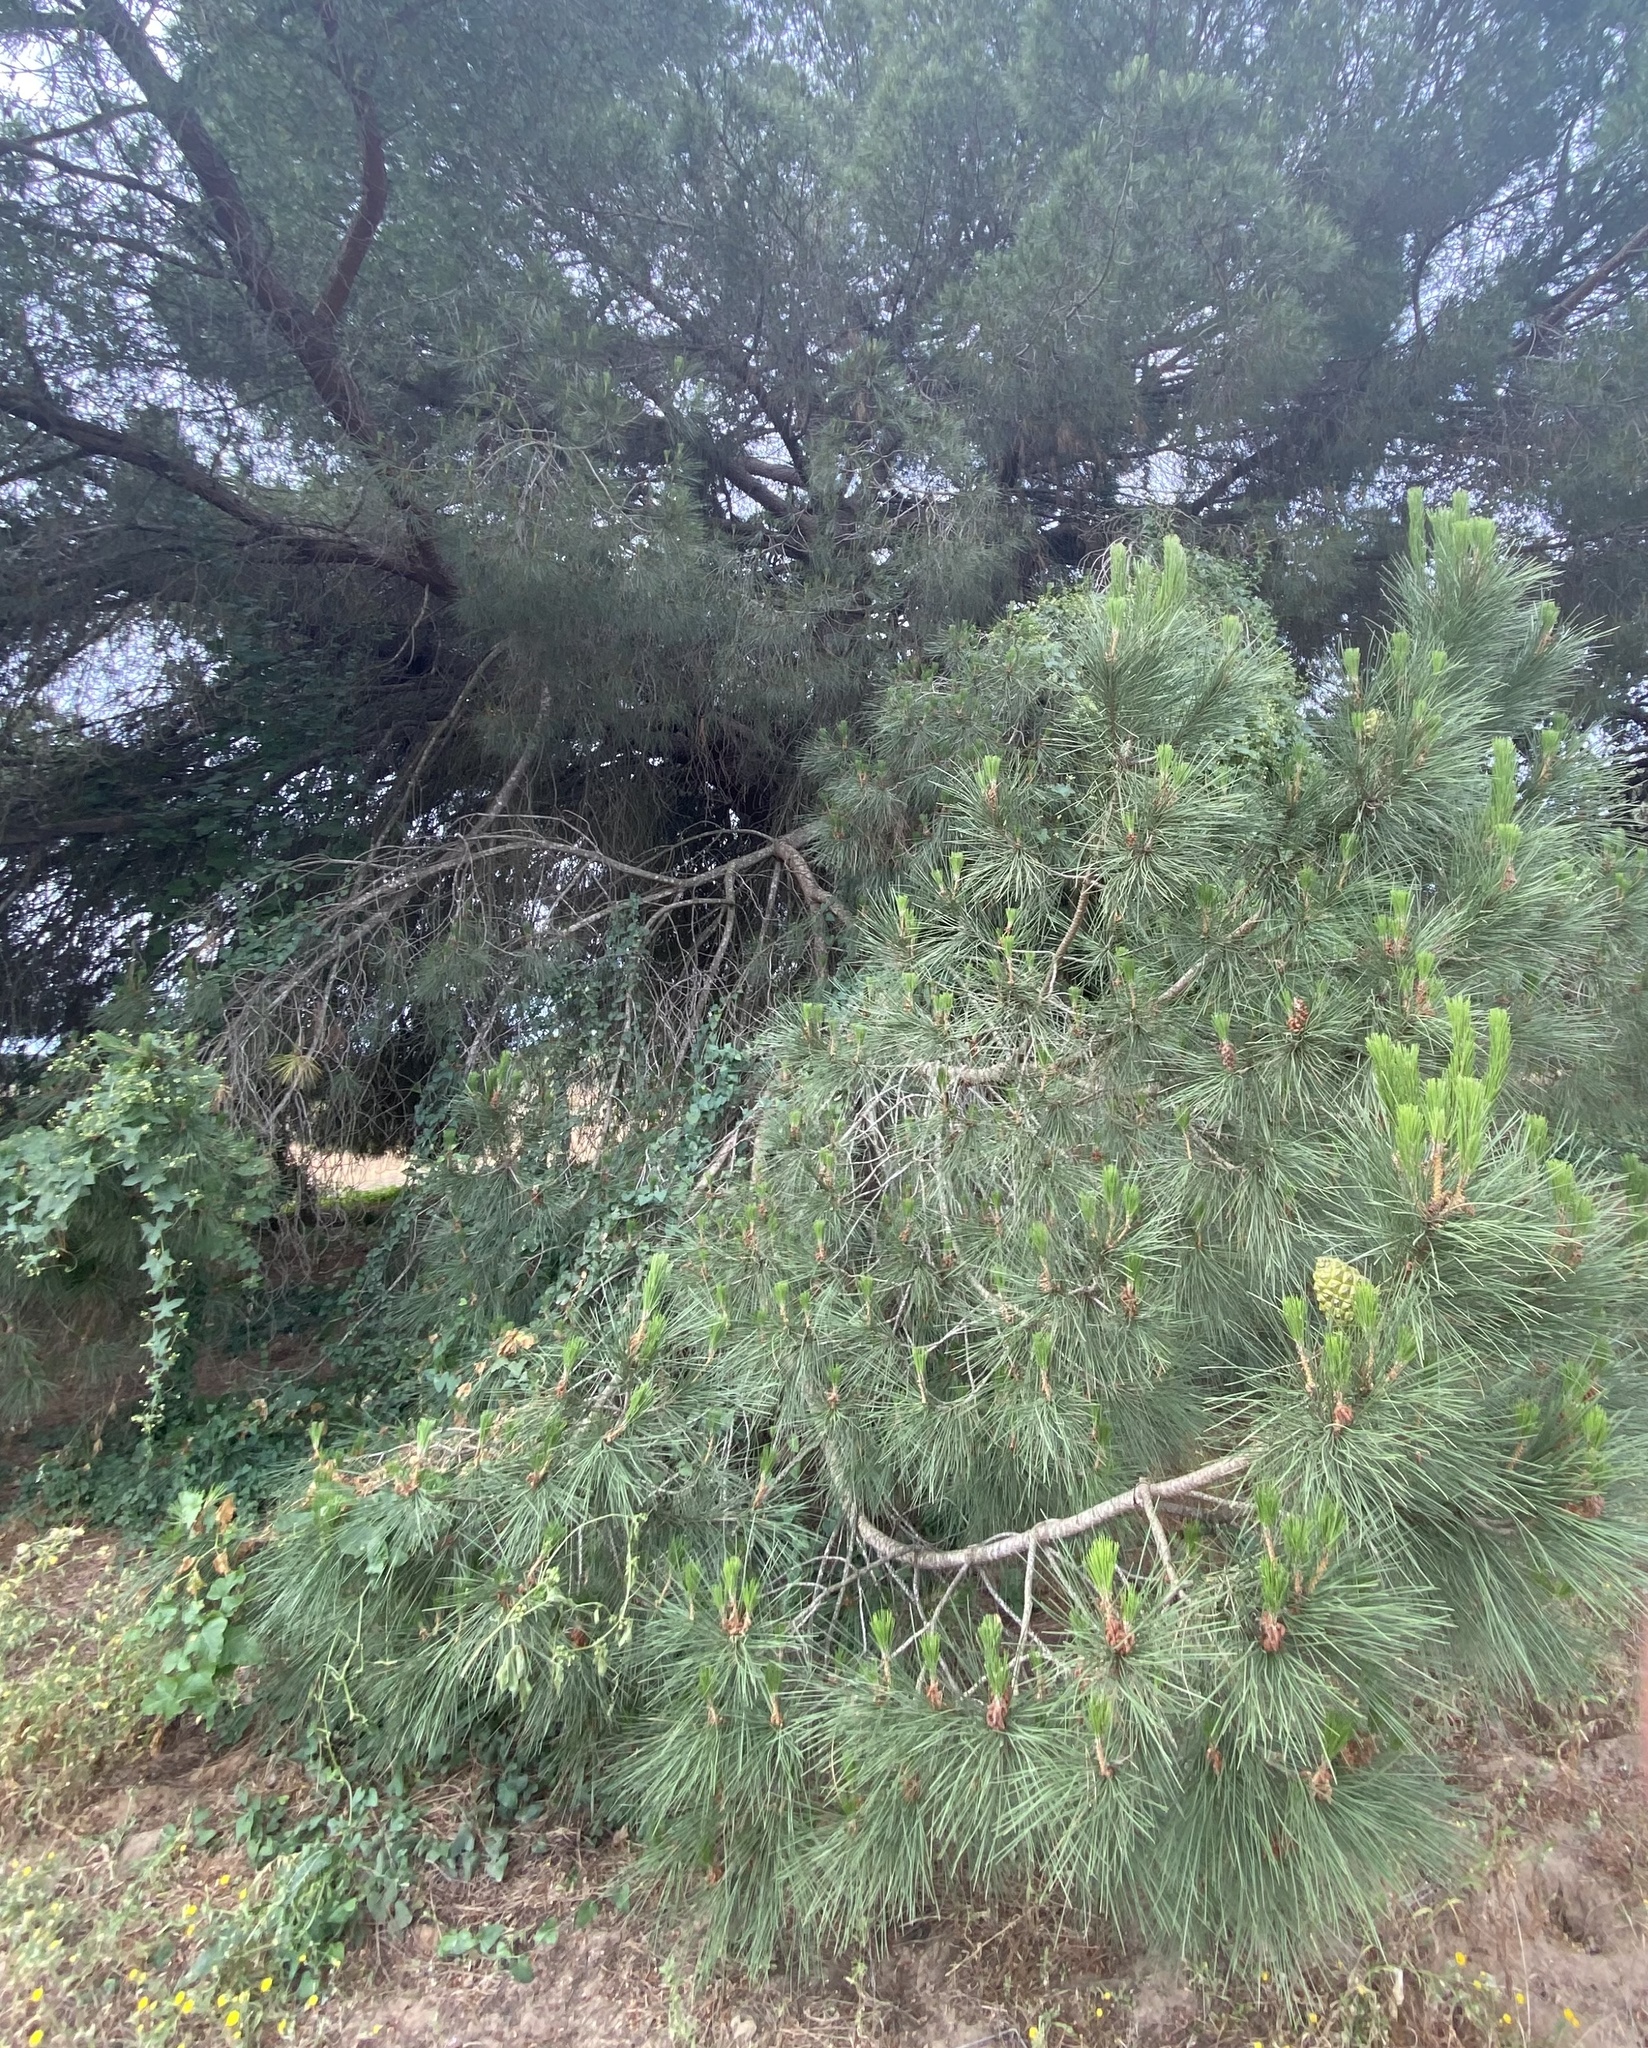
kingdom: Plantae
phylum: Tracheophyta
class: Pinopsida
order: Pinales
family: Pinaceae
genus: Pinus
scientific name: Pinus pinea
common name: Italian stone pine
